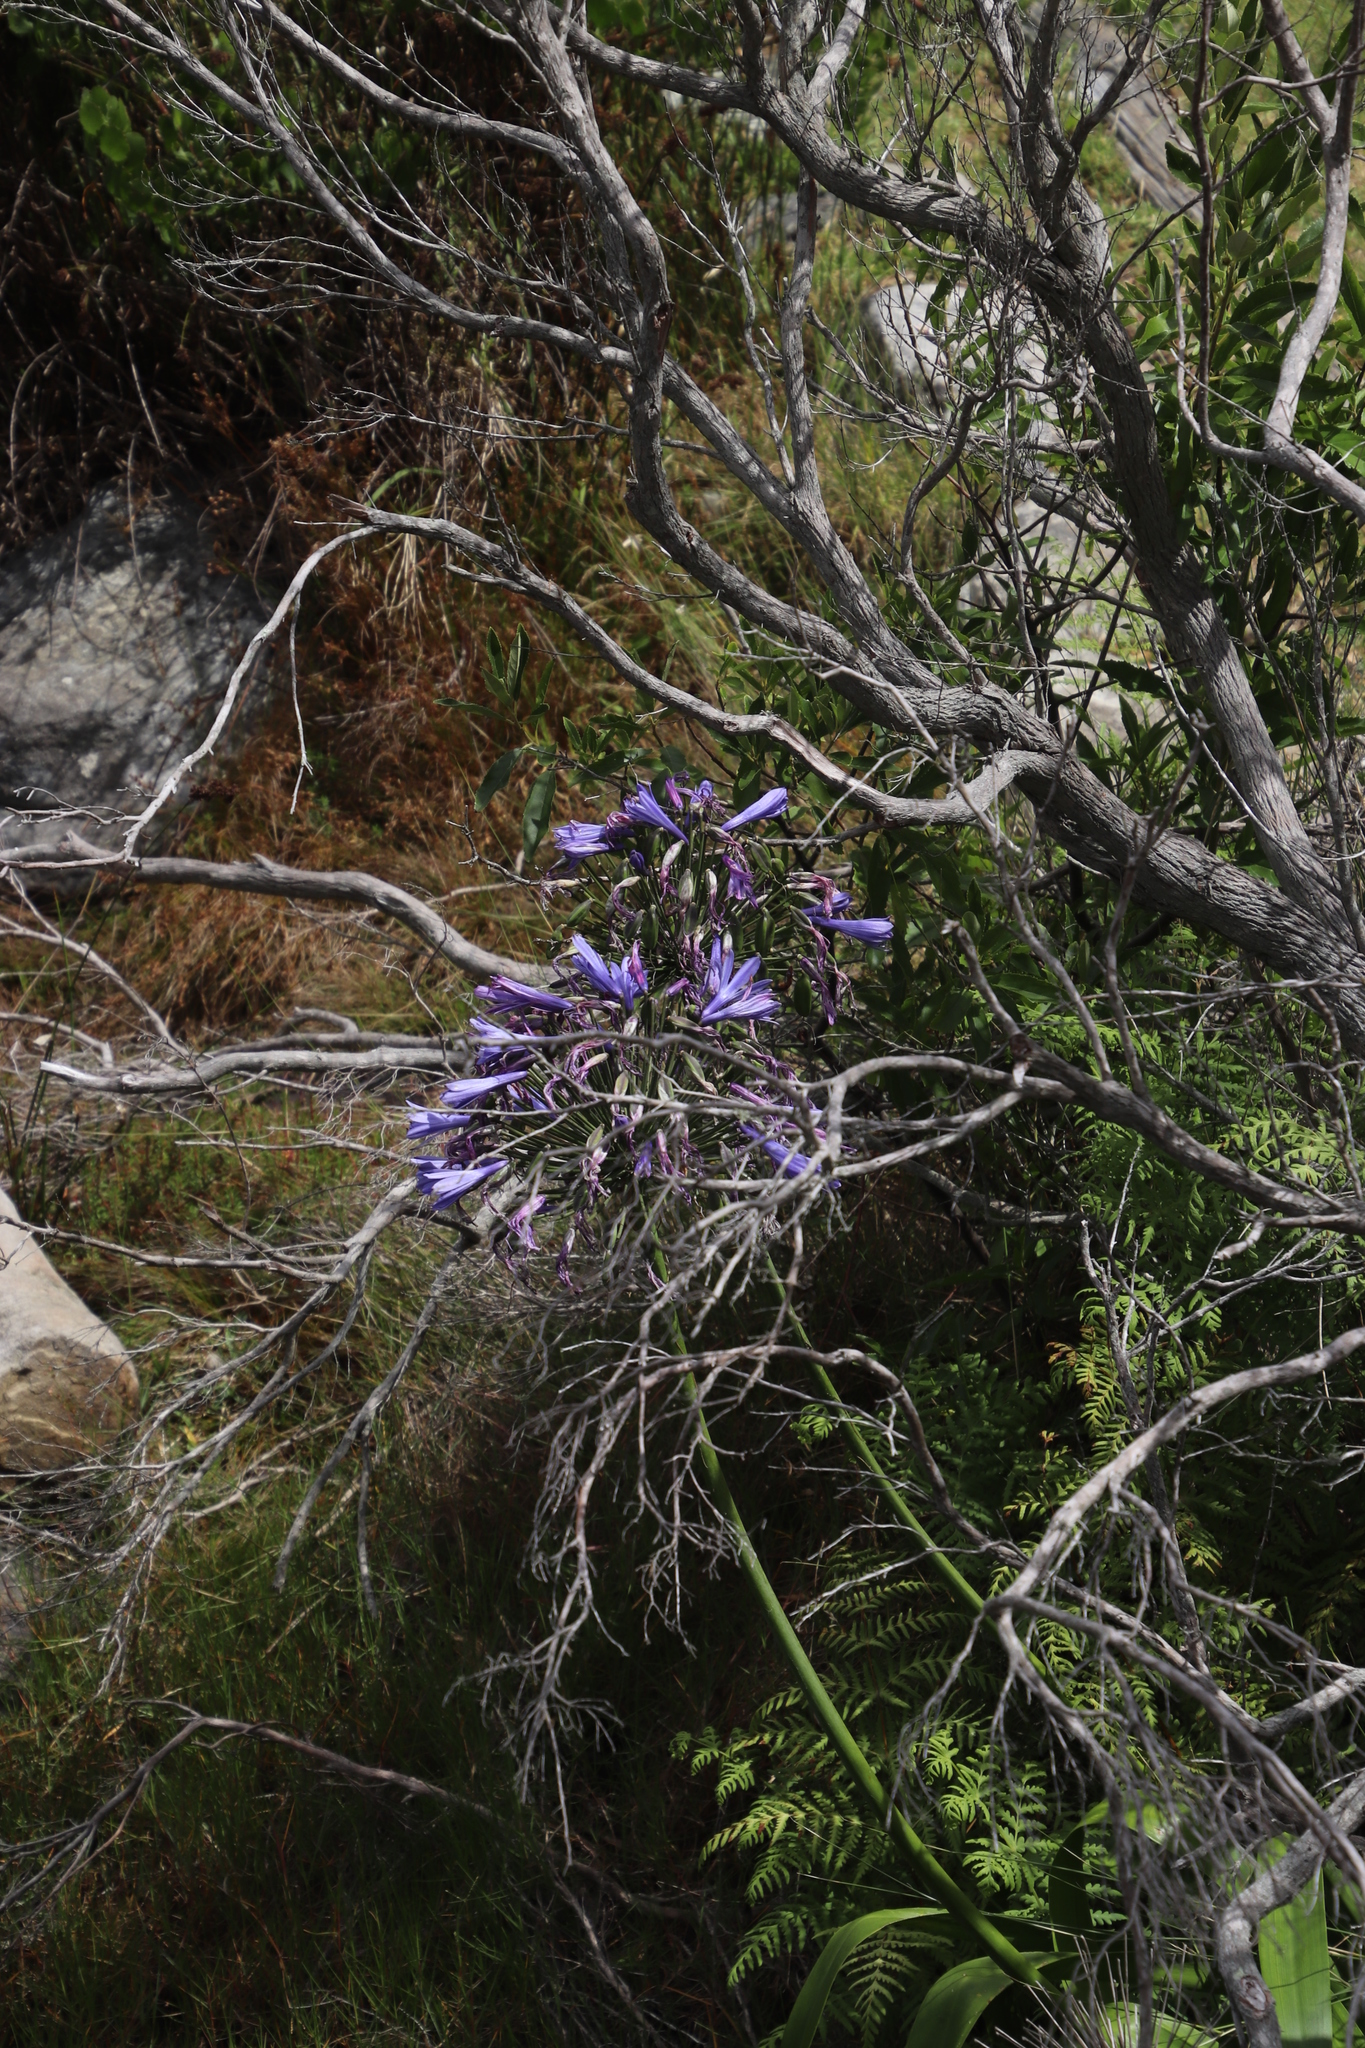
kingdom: Plantae
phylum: Tracheophyta
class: Liliopsida
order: Asparagales
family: Amaryllidaceae
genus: Agapanthus
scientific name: Agapanthus praecox
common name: African-lily
